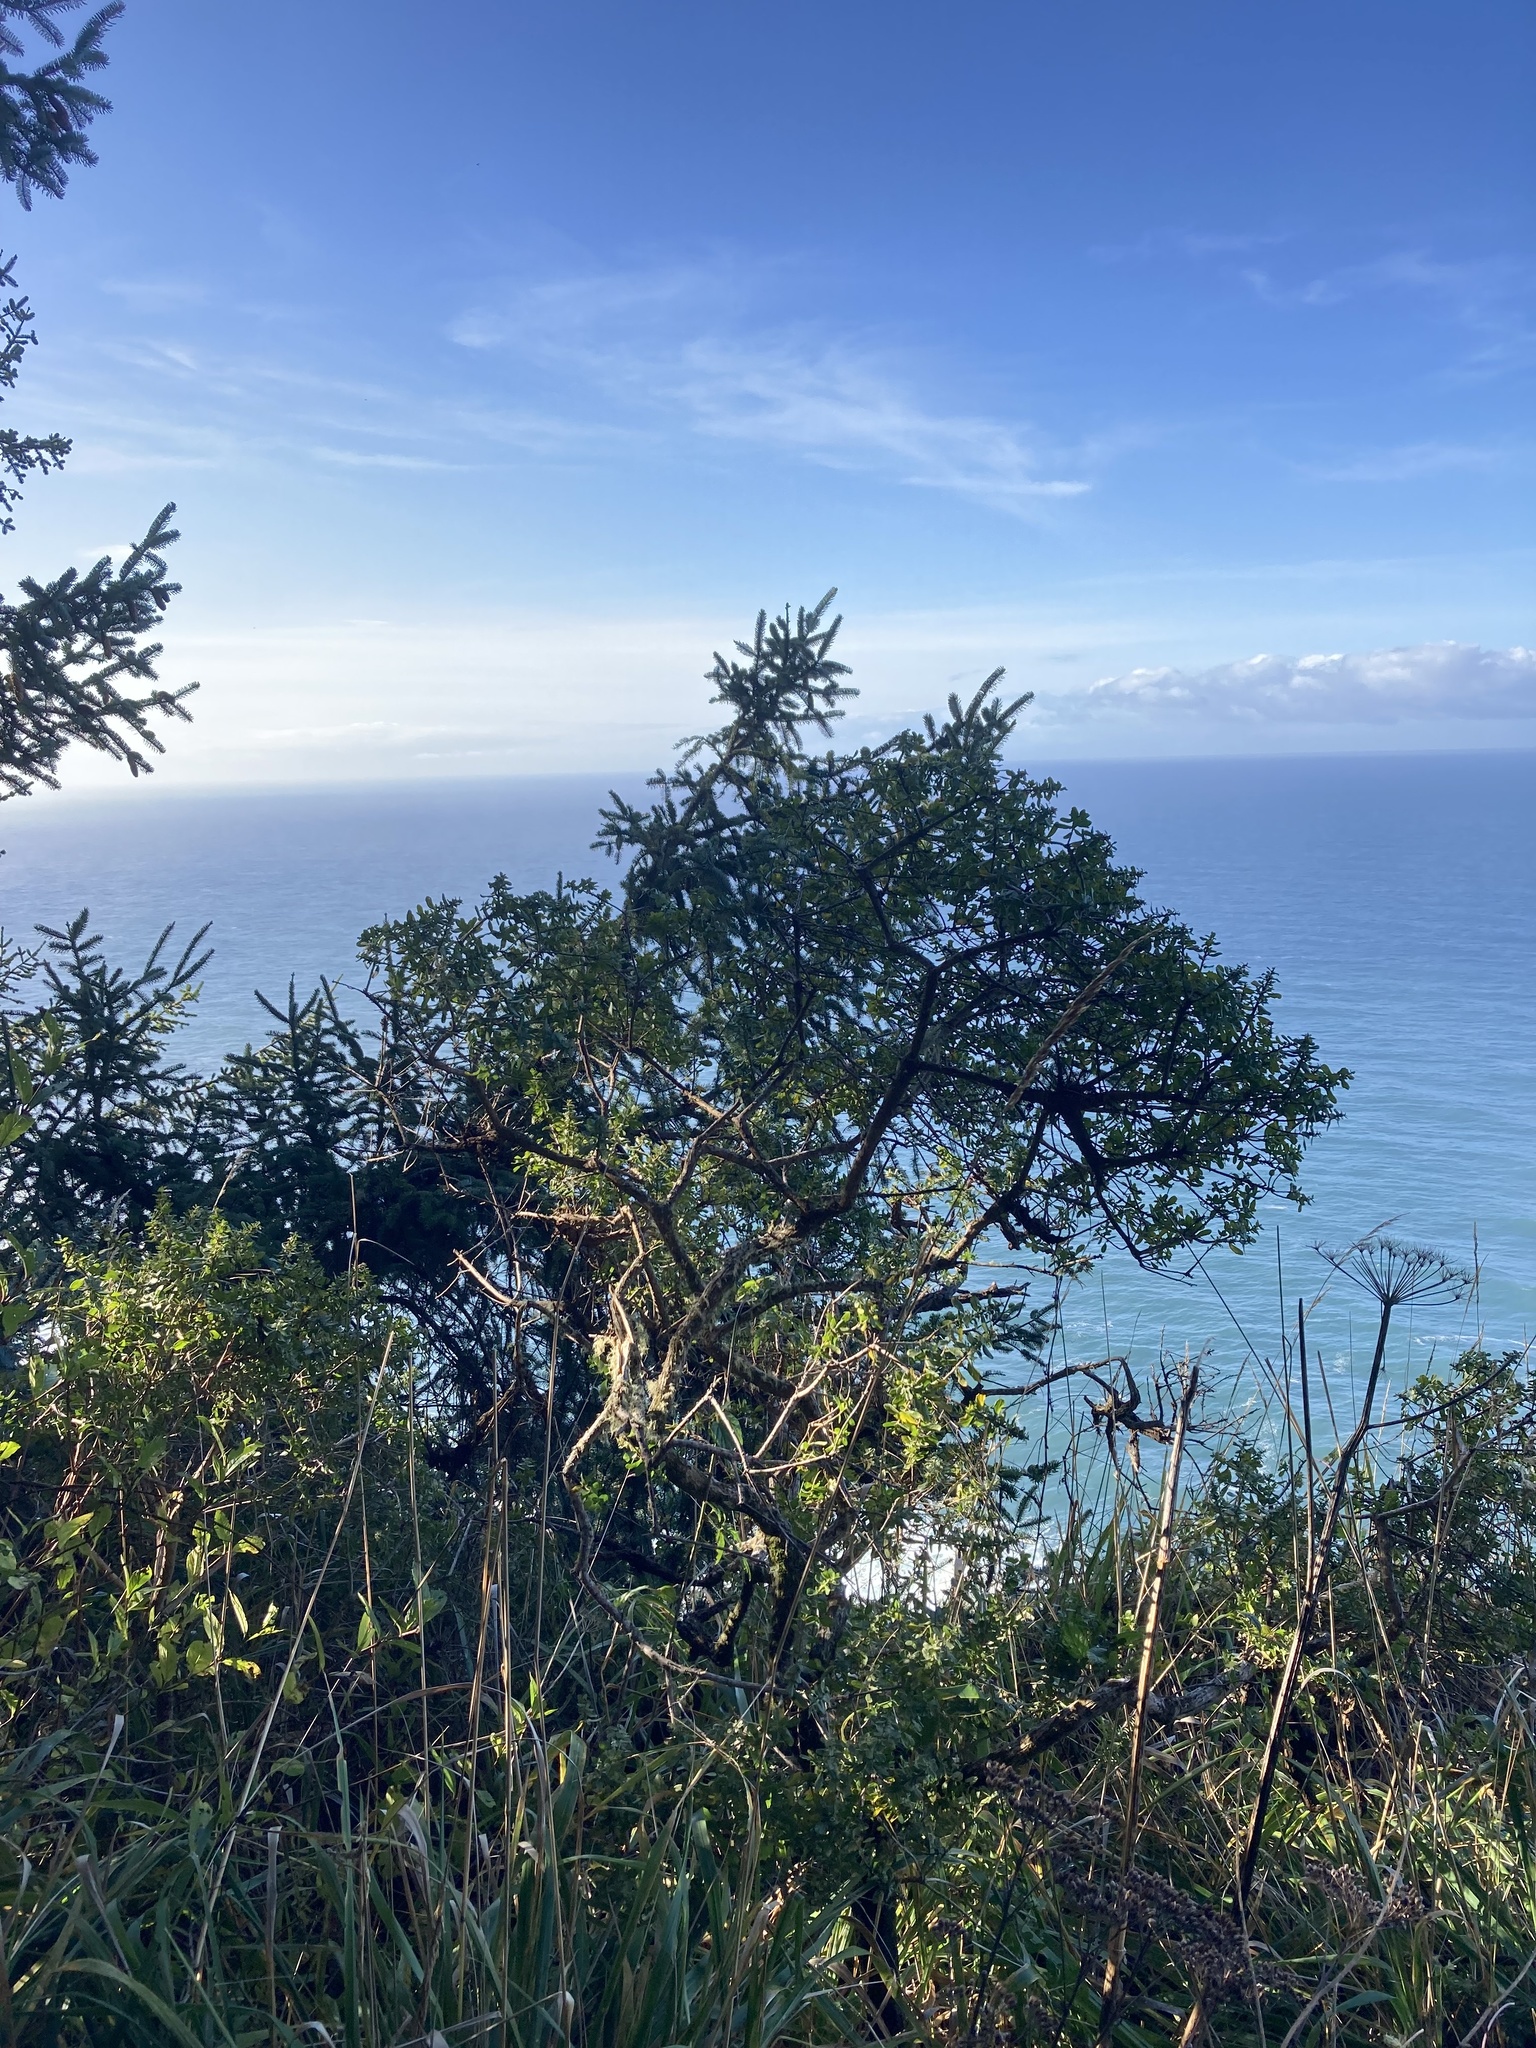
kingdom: Plantae
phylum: Tracheophyta
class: Magnoliopsida
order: Asterales
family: Asteraceae
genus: Baccharis
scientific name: Baccharis pilularis
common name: Coyotebrush
